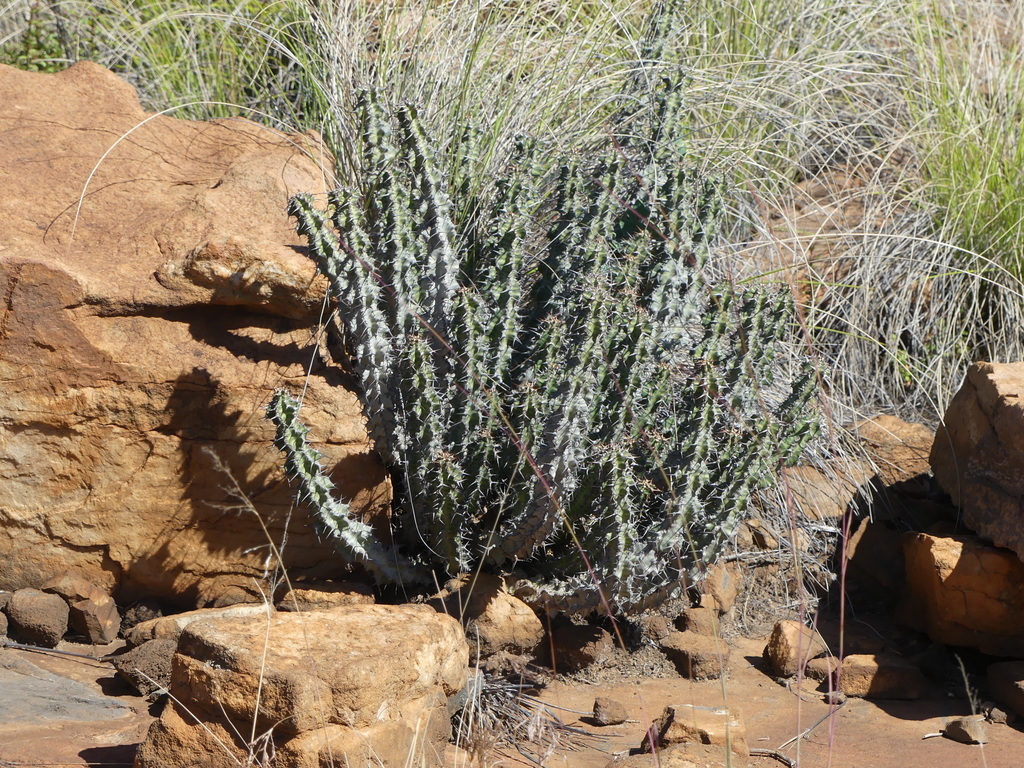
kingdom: Plantae
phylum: Tracheophyta
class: Magnoliopsida
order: Malpighiales
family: Euphorbiaceae
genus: Euphorbia
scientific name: Euphorbia knobelii
